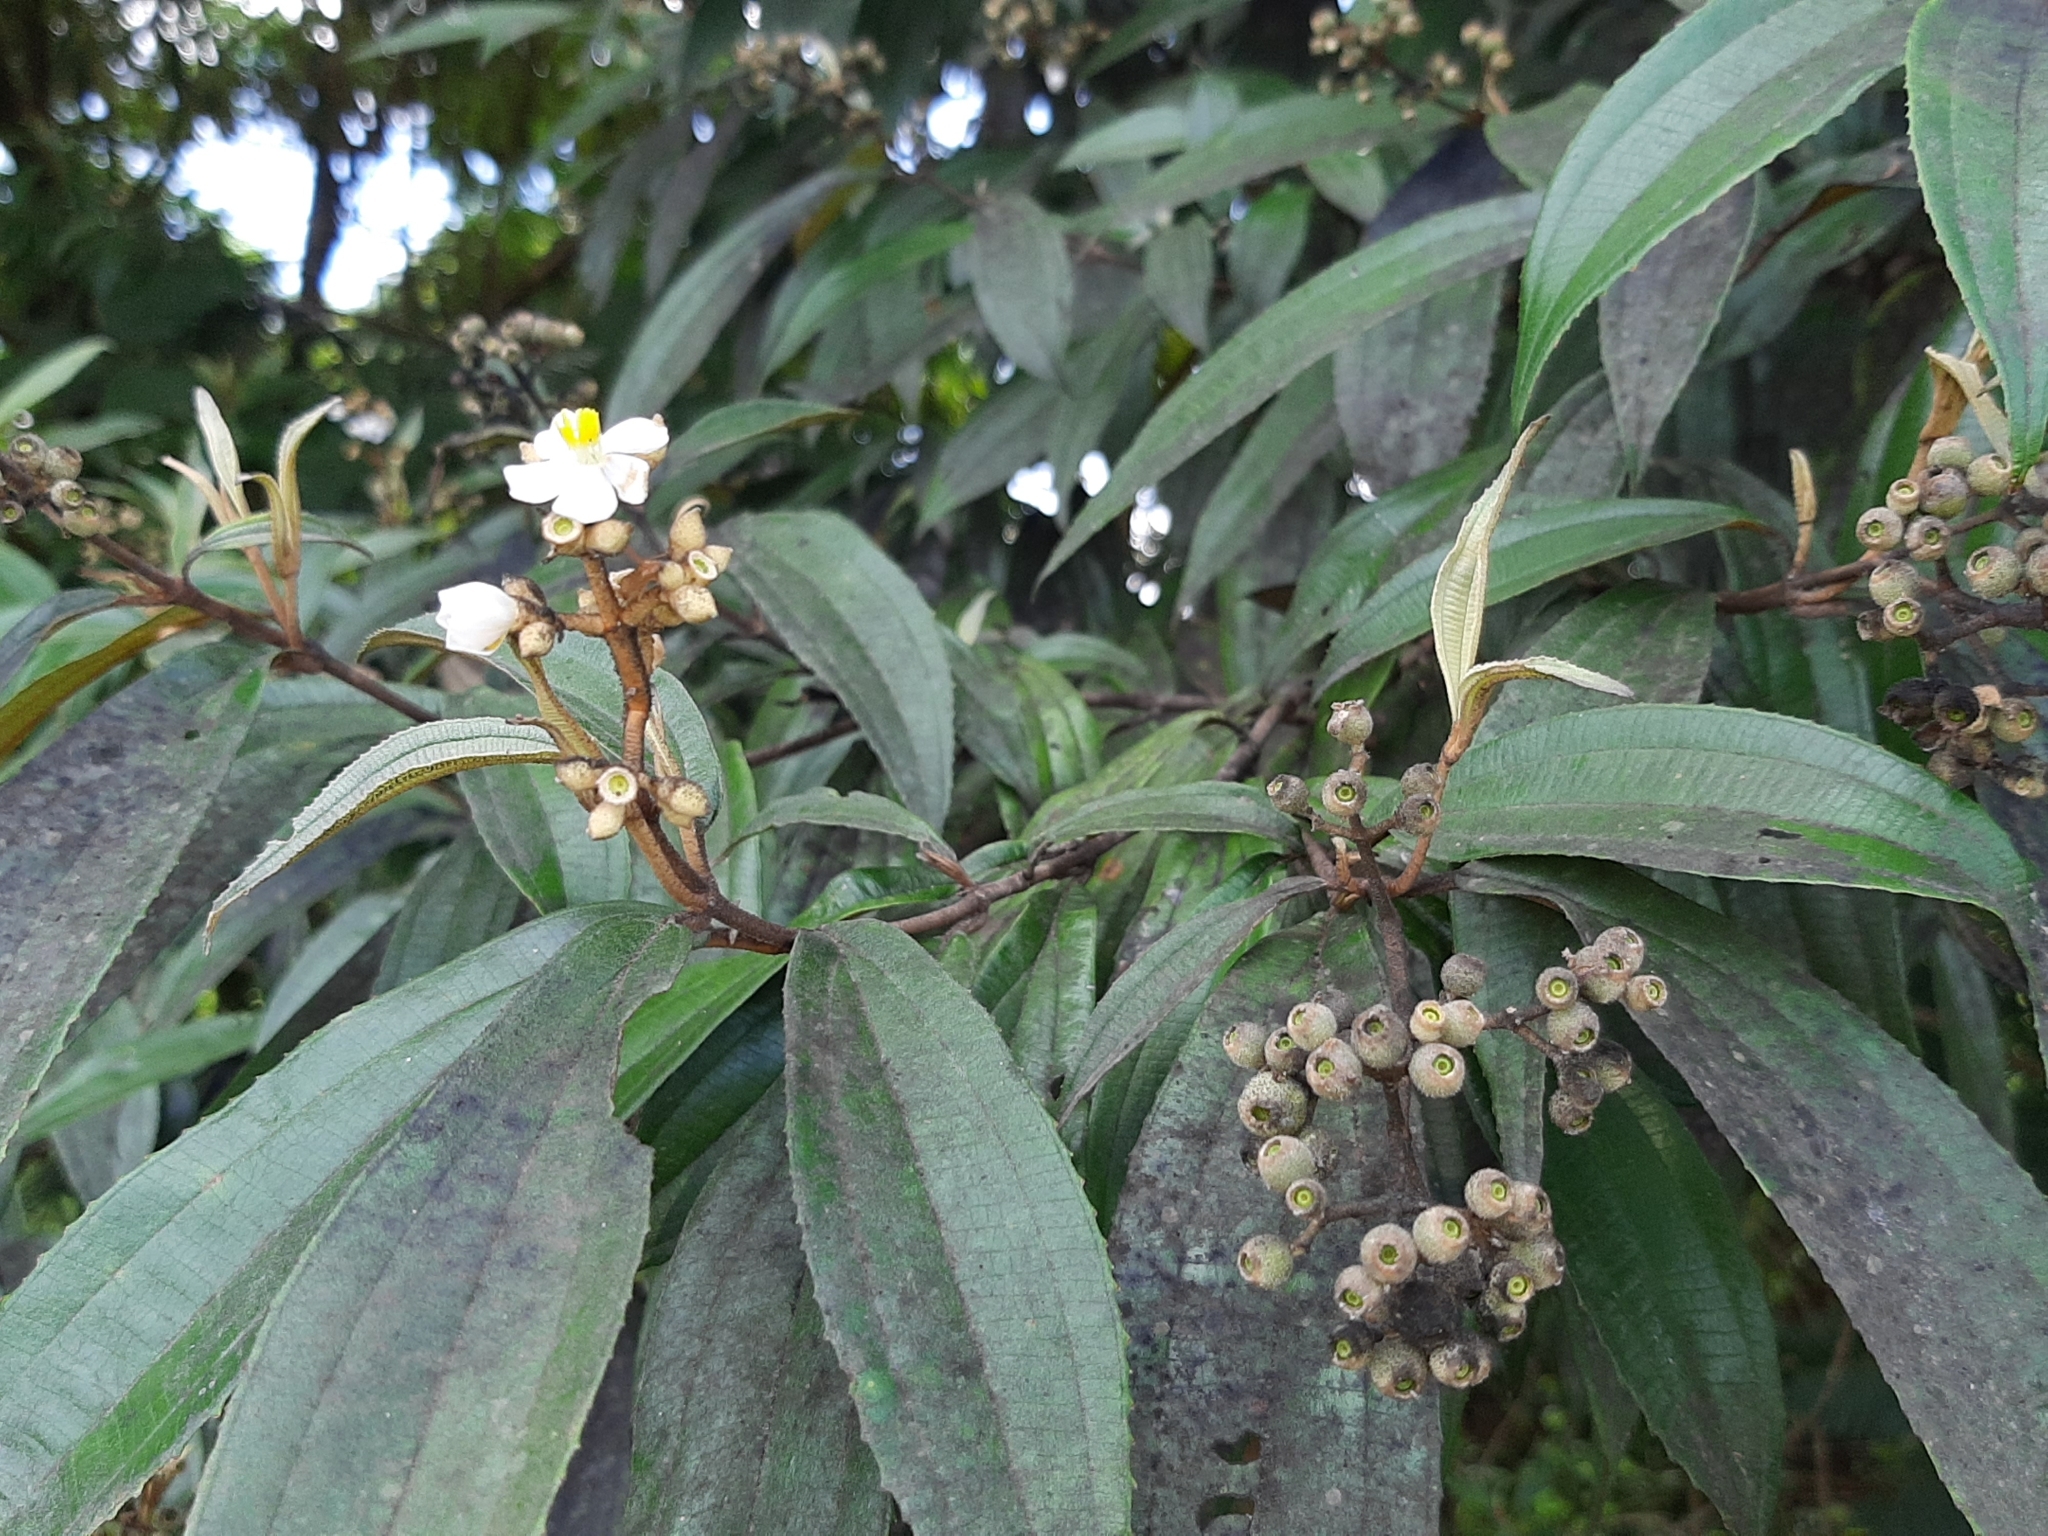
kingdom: Plantae
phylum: Tracheophyta
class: Magnoliopsida
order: Myrtales
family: Melastomataceae
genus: Miconia
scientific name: Miconia xalapensis
